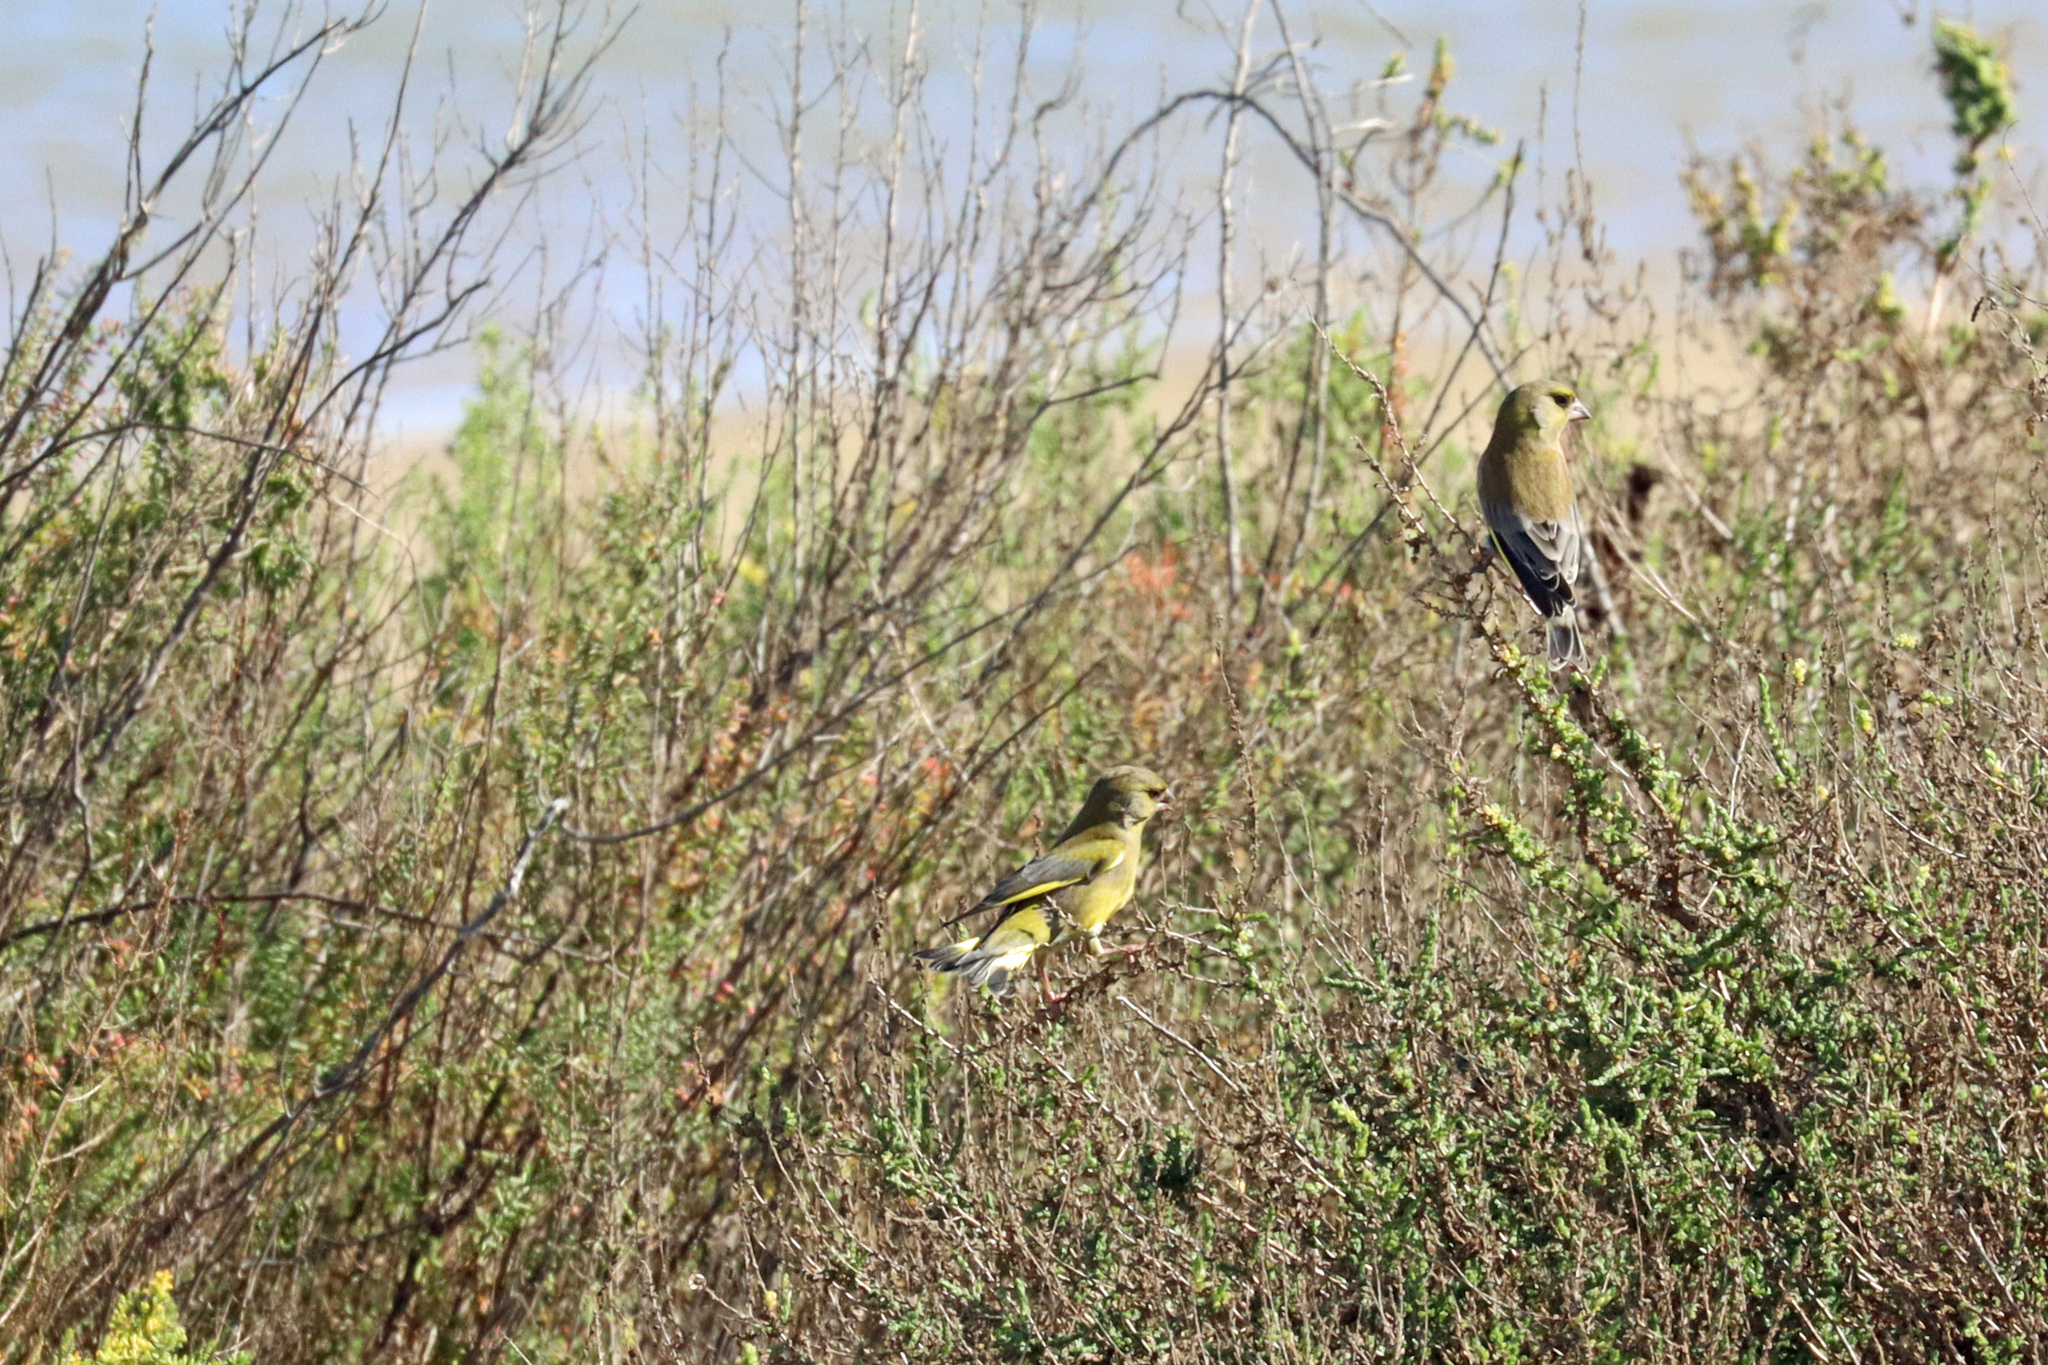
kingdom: Plantae
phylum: Tracheophyta
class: Liliopsida
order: Poales
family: Poaceae
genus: Chloris
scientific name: Chloris chloris
